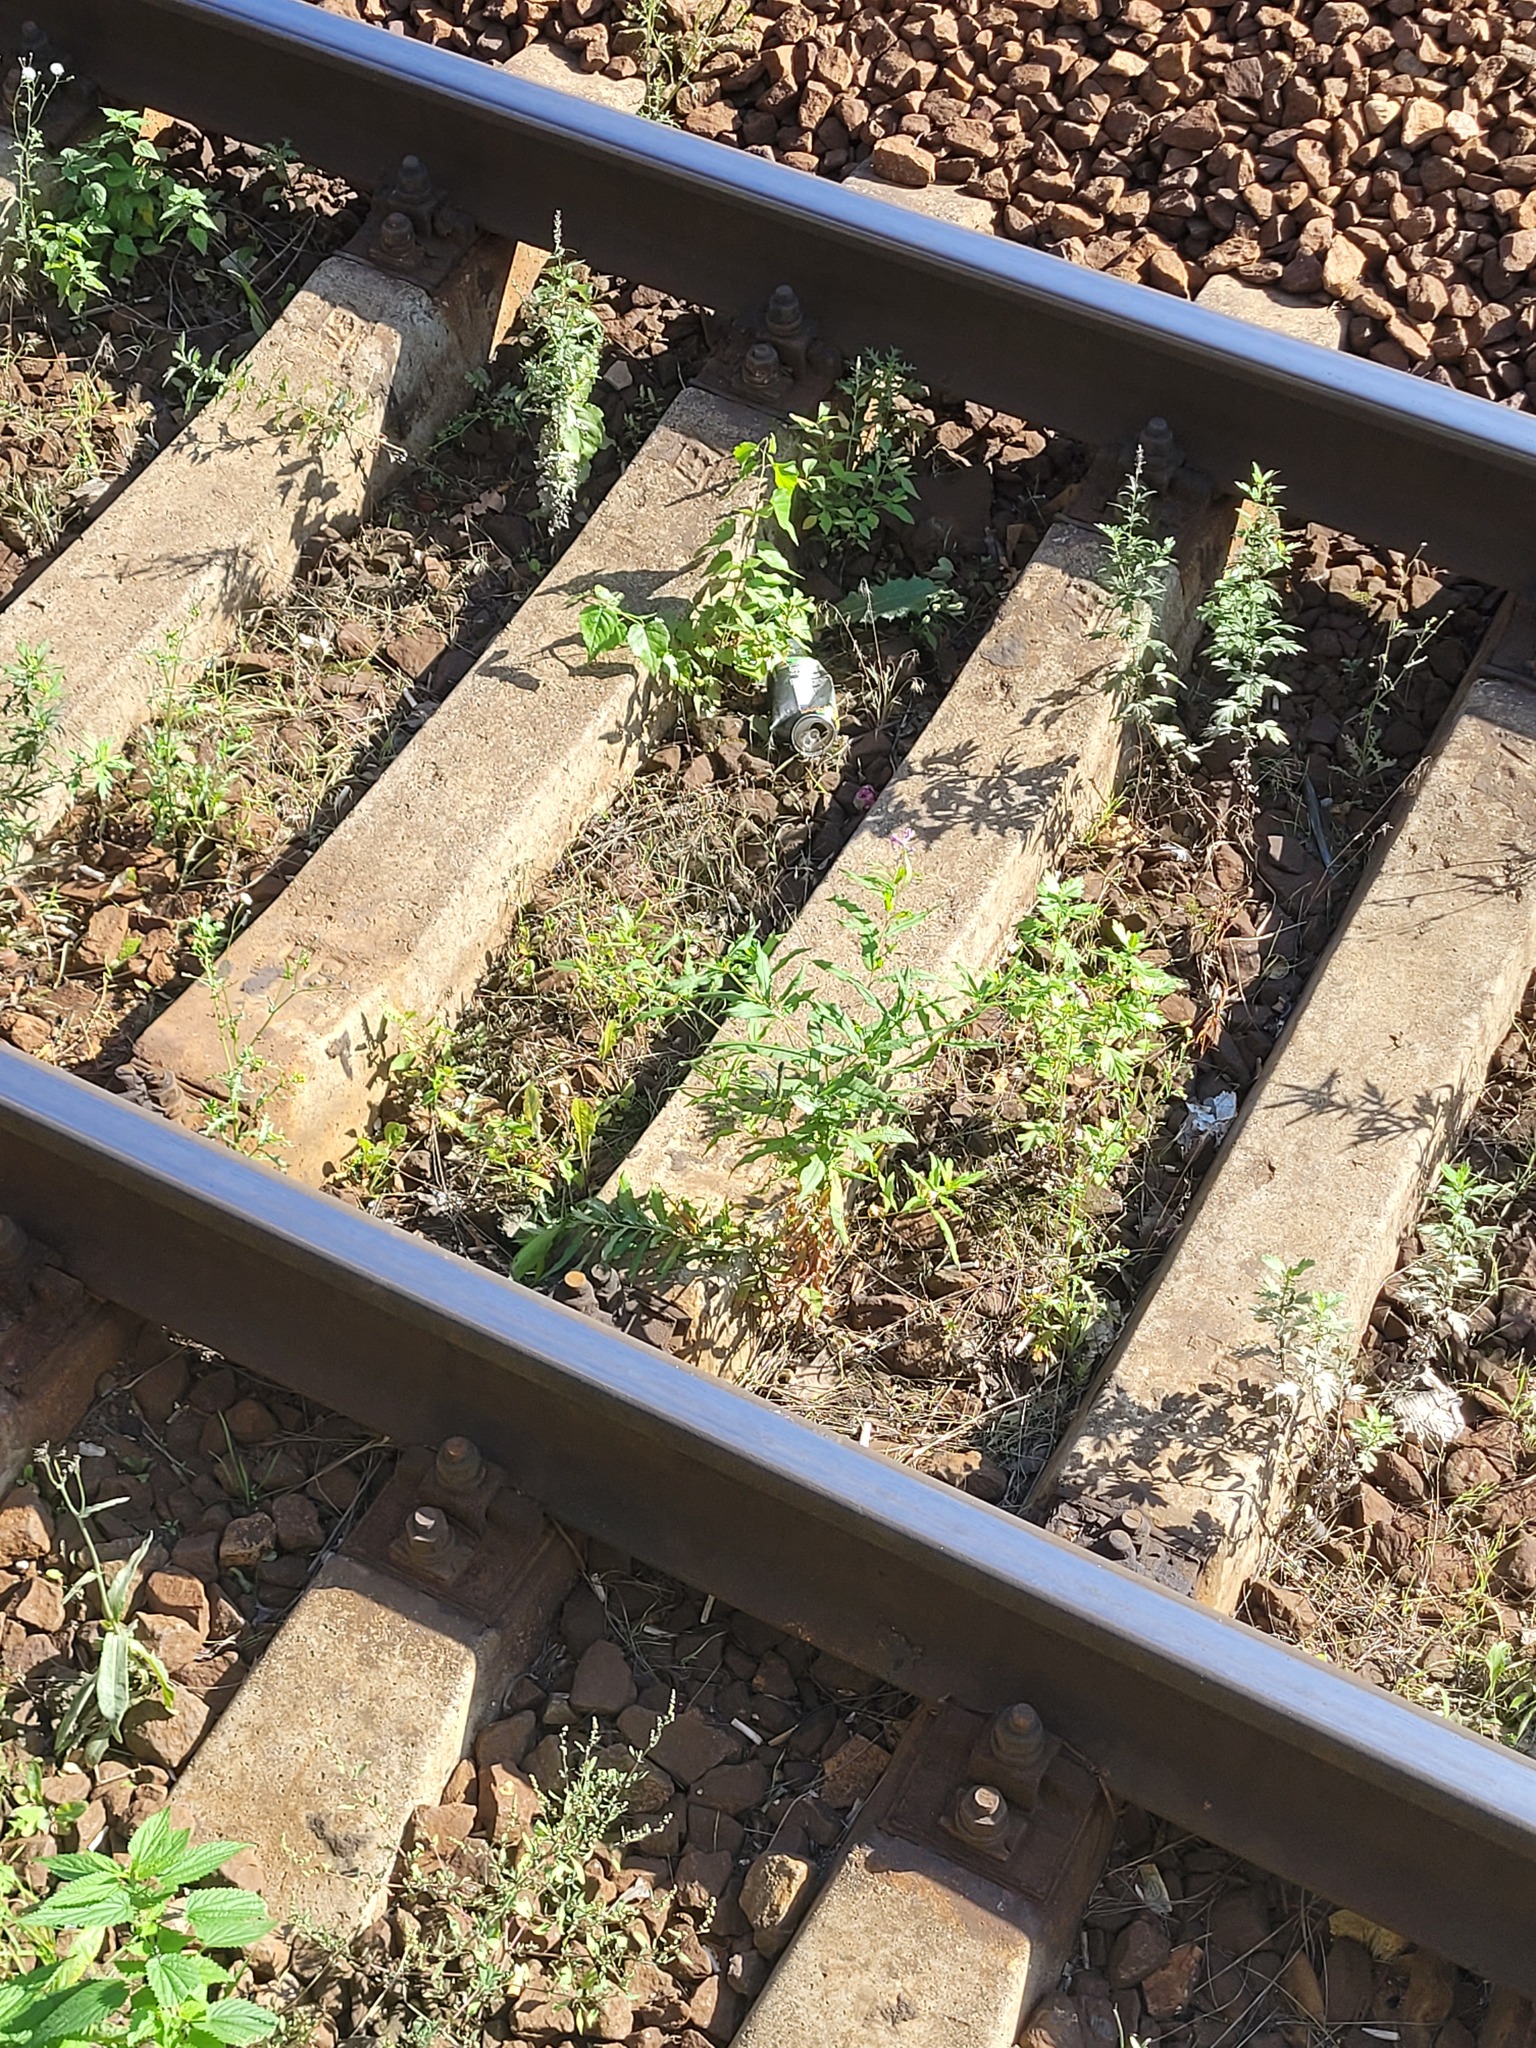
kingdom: Plantae
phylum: Tracheophyta
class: Magnoliopsida
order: Myrtales
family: Onagraceae
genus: Chamaenerion
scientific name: Chamaenerion angustifolium
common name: Fireweed
